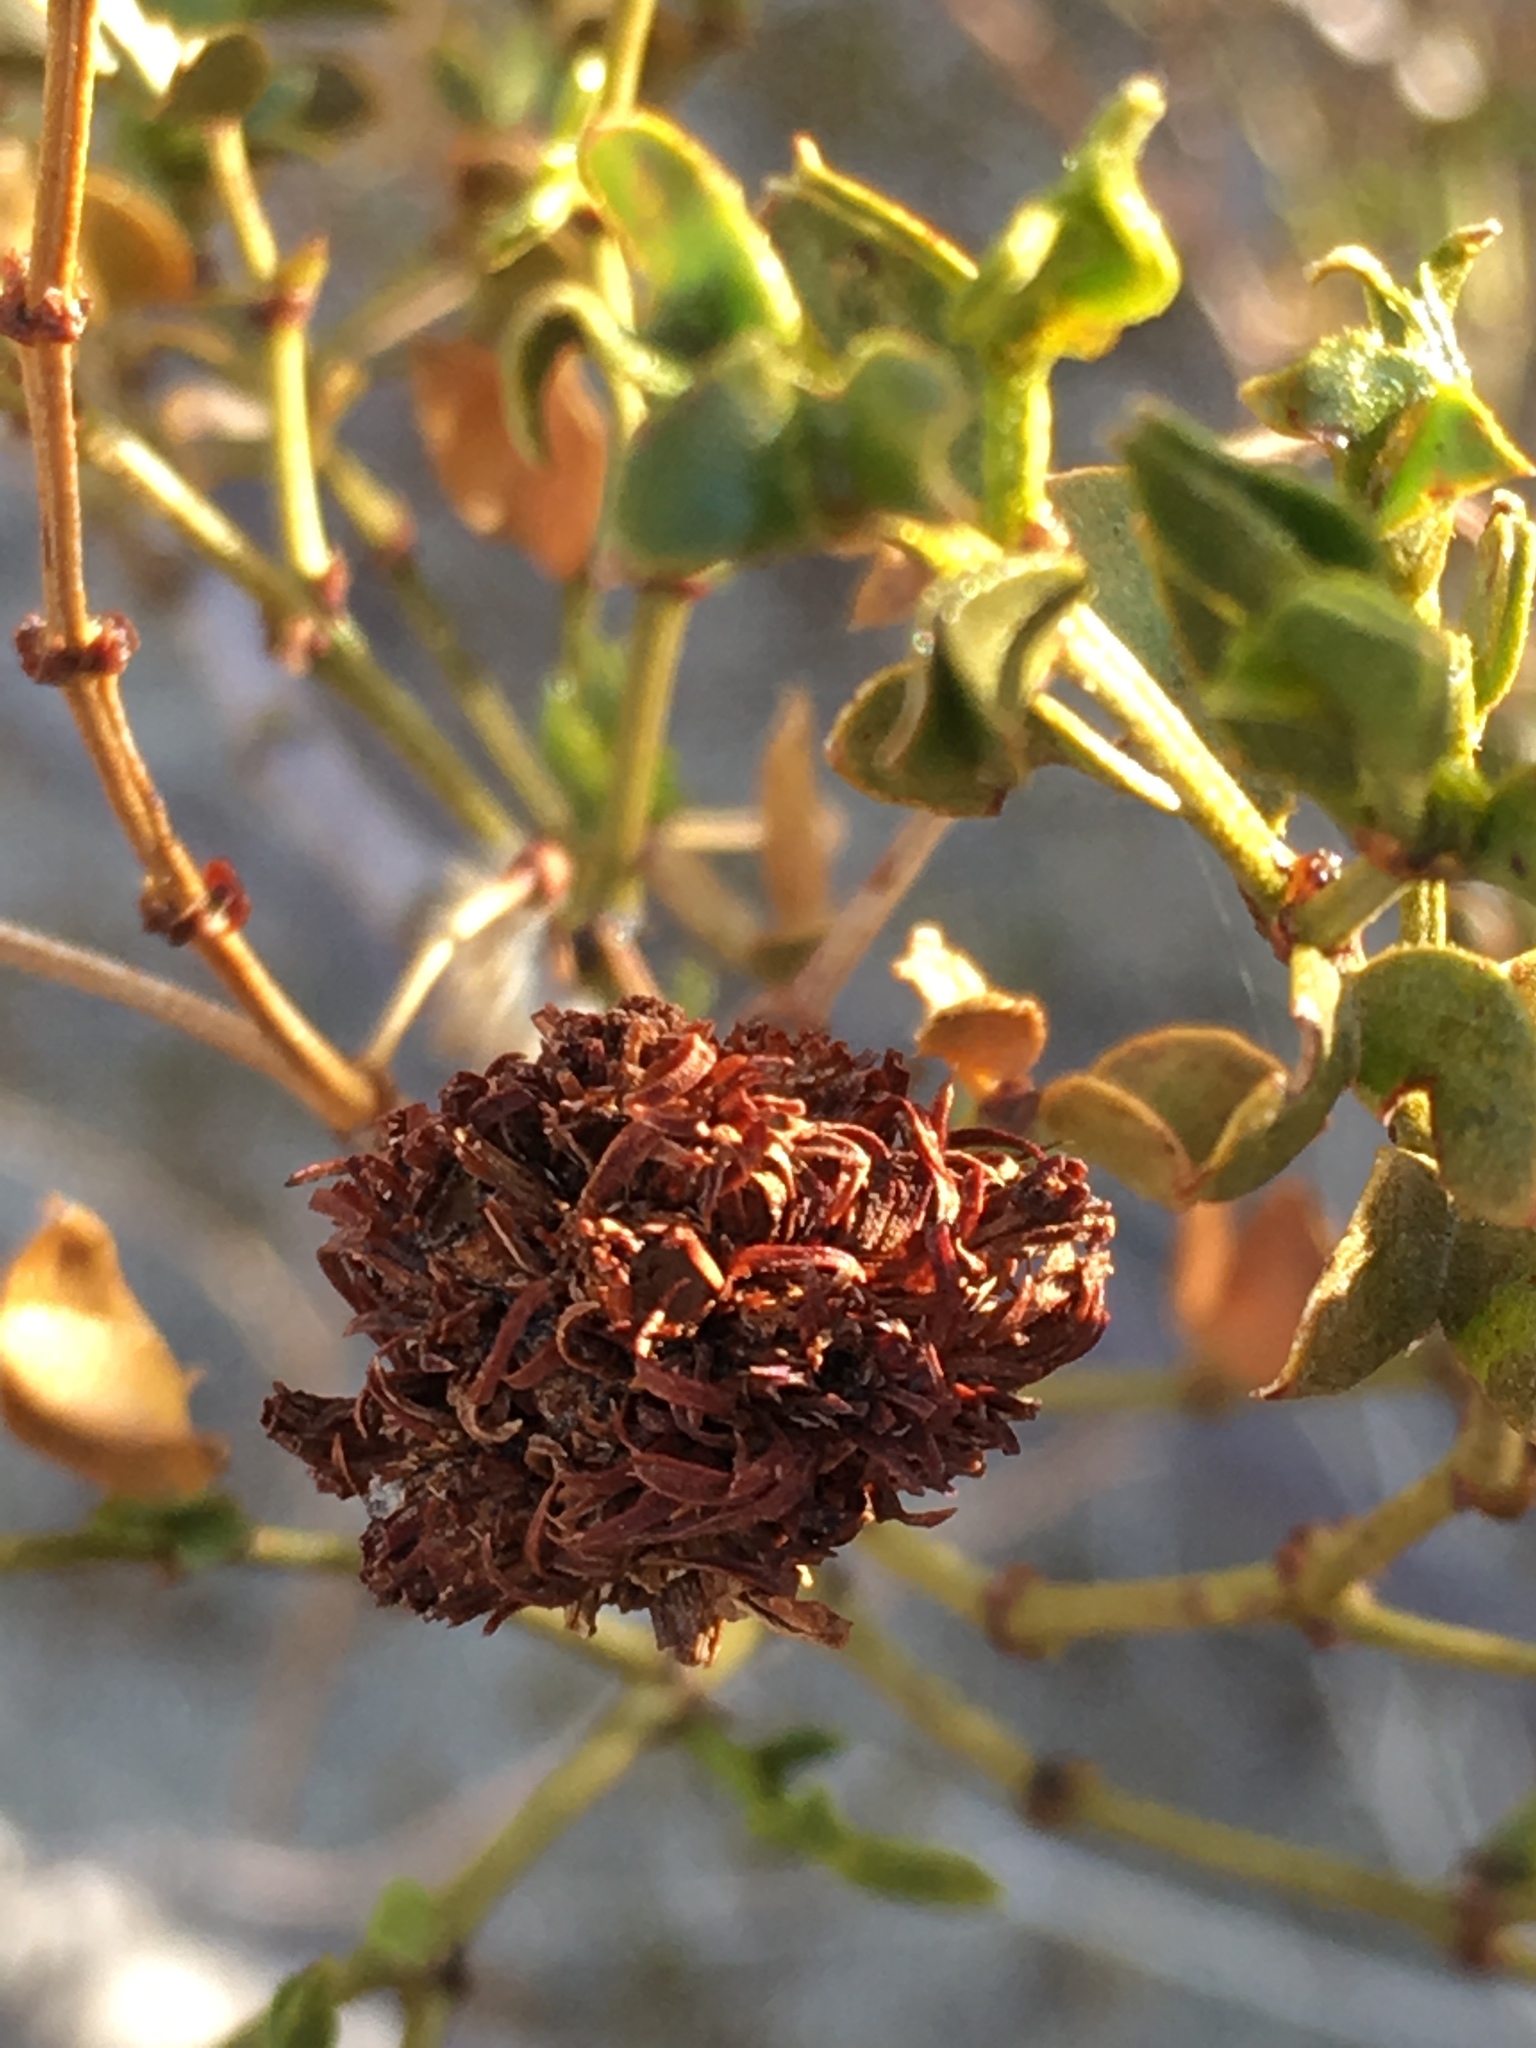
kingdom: Animalia
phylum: Arthropoda
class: Insecta
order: Diptera
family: Cecidomyiidae
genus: Asphondylia
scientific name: Asphondylia auripila
